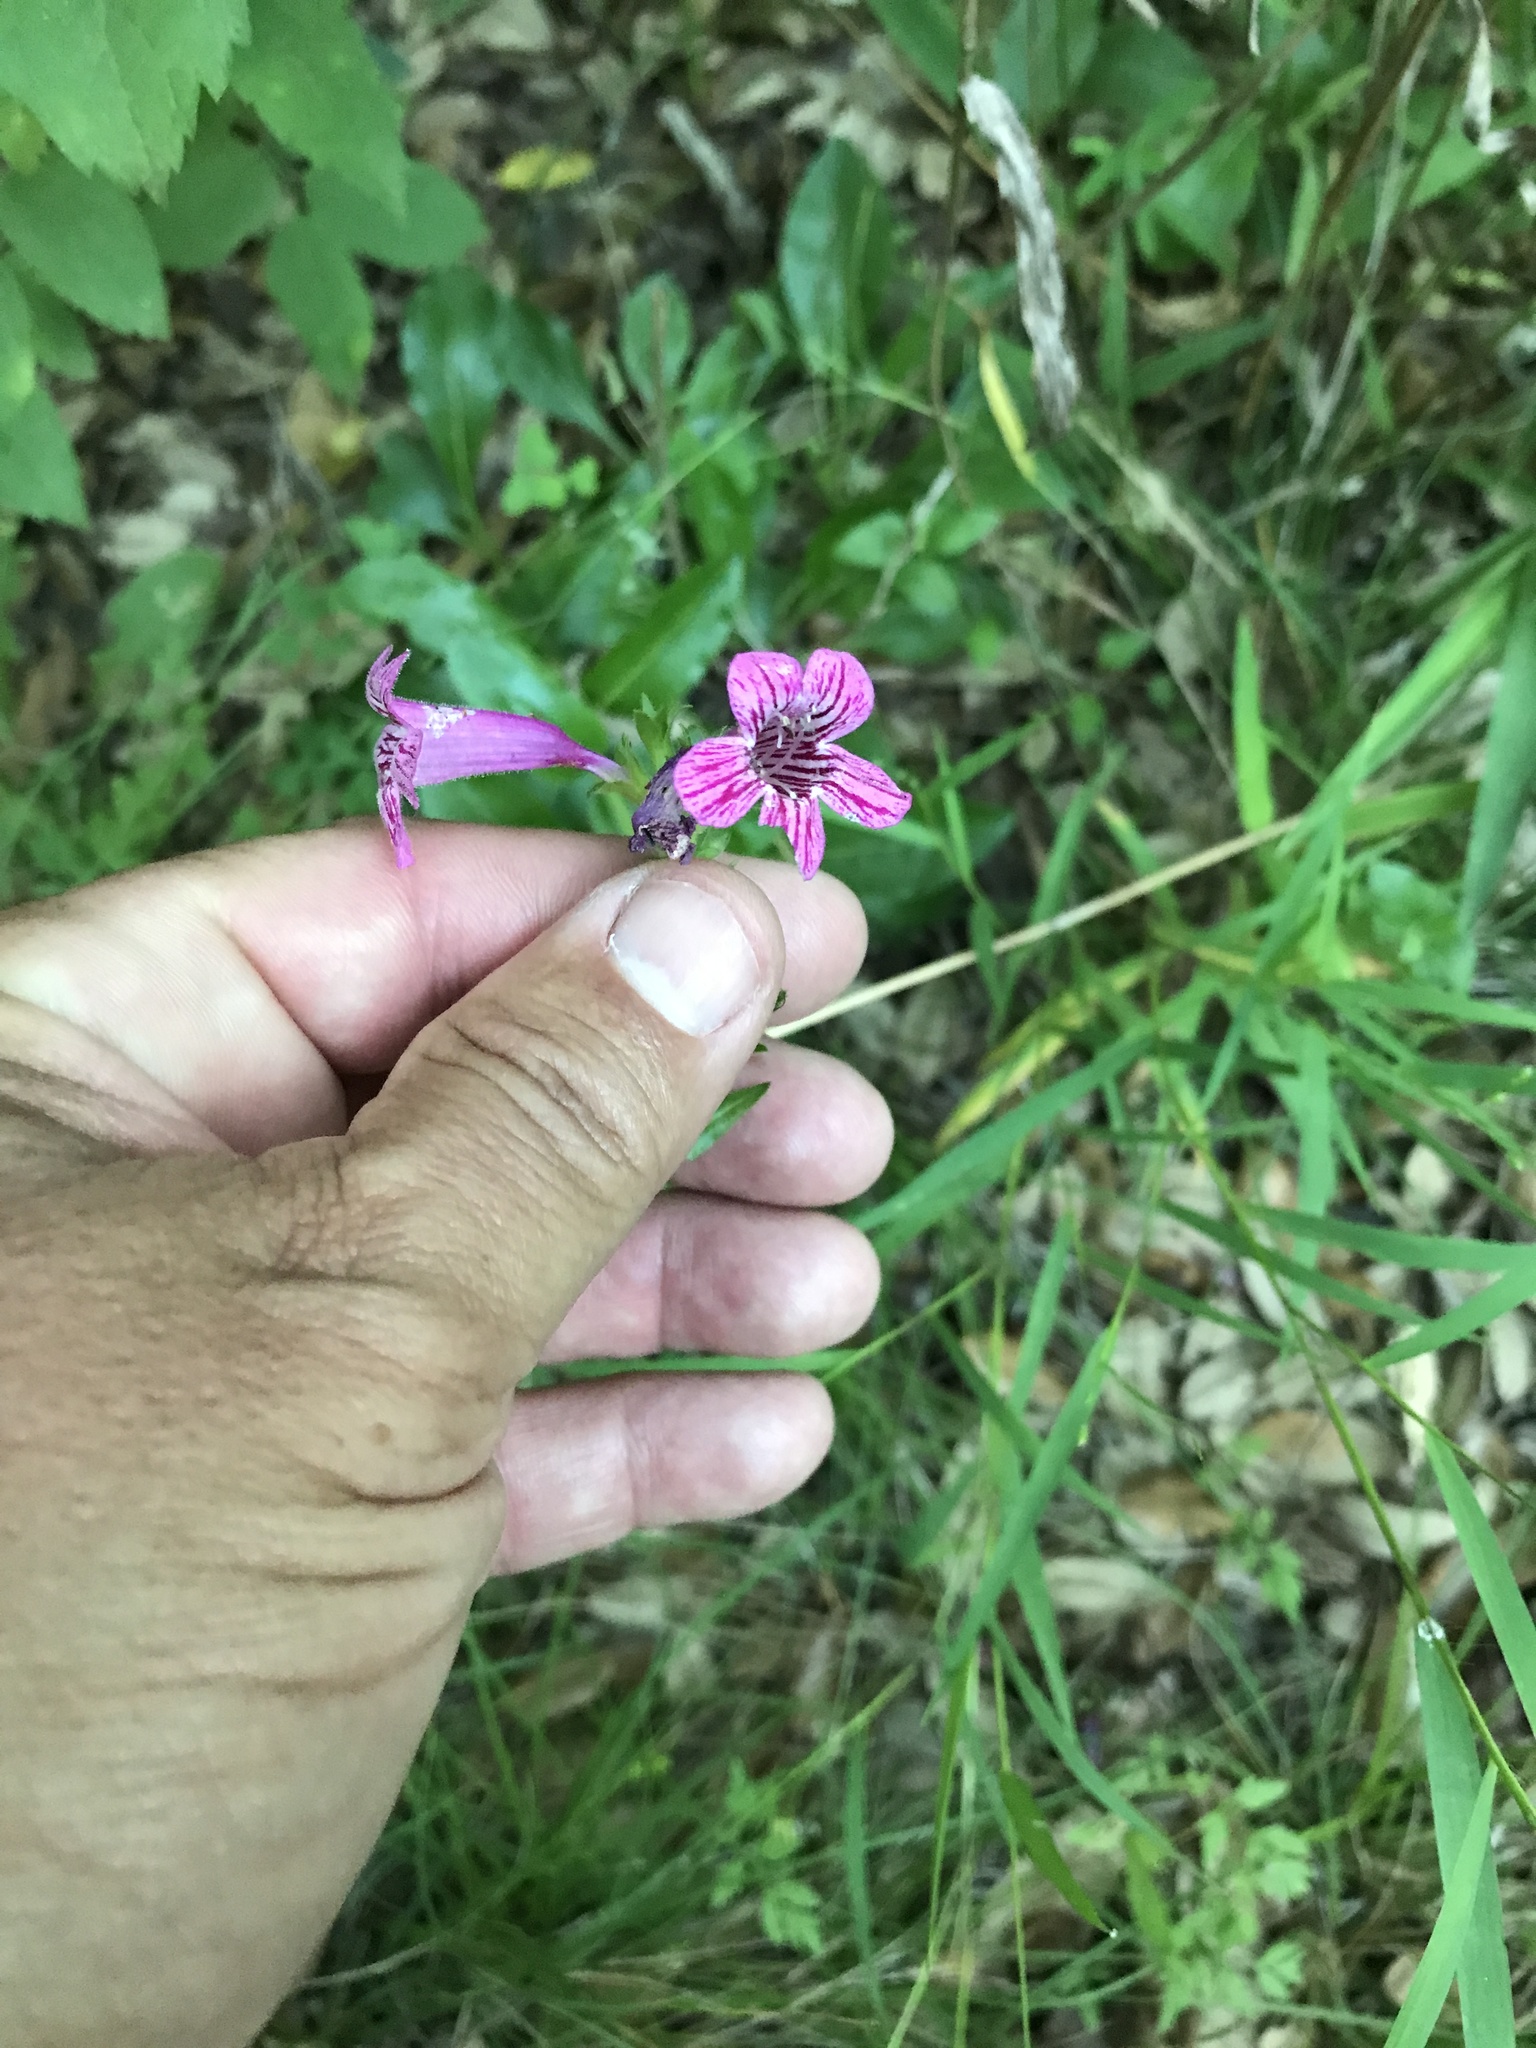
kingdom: Plantae
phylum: Tracheophyta
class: Magnoliopsida
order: Lamiales
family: Plantaginaceae
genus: Penstemon
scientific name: Penstemon triflorus
